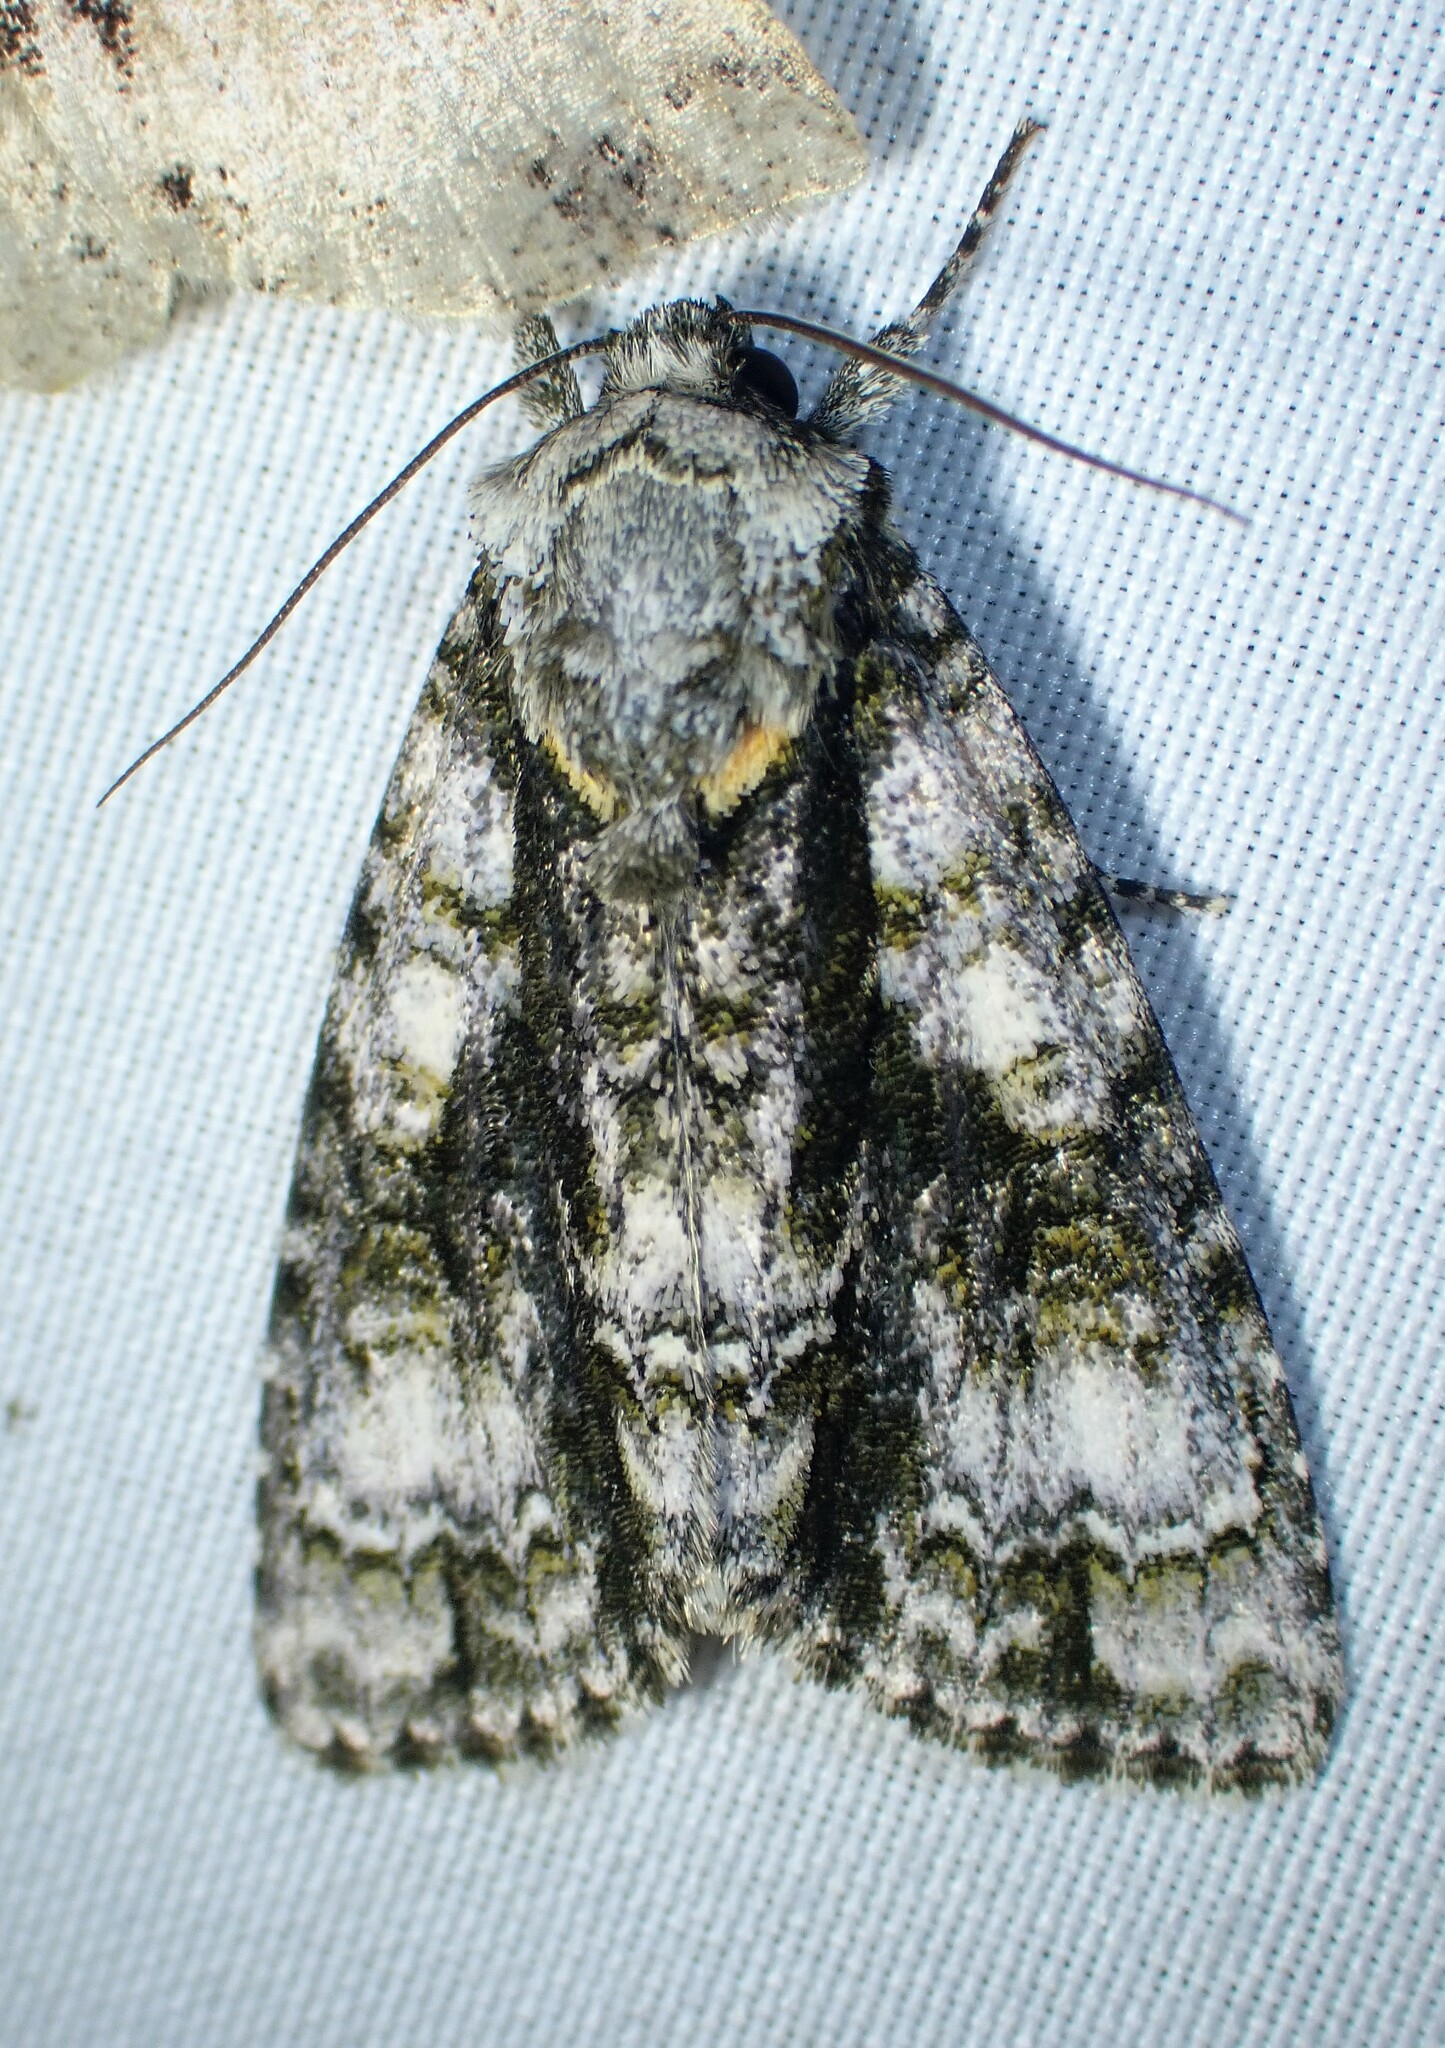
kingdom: Animalia
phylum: Arthropoda
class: Insecta
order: Lepidoptera
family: Noctuidae
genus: Acronicta
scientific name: Acronicta superans
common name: Splendid dagger
